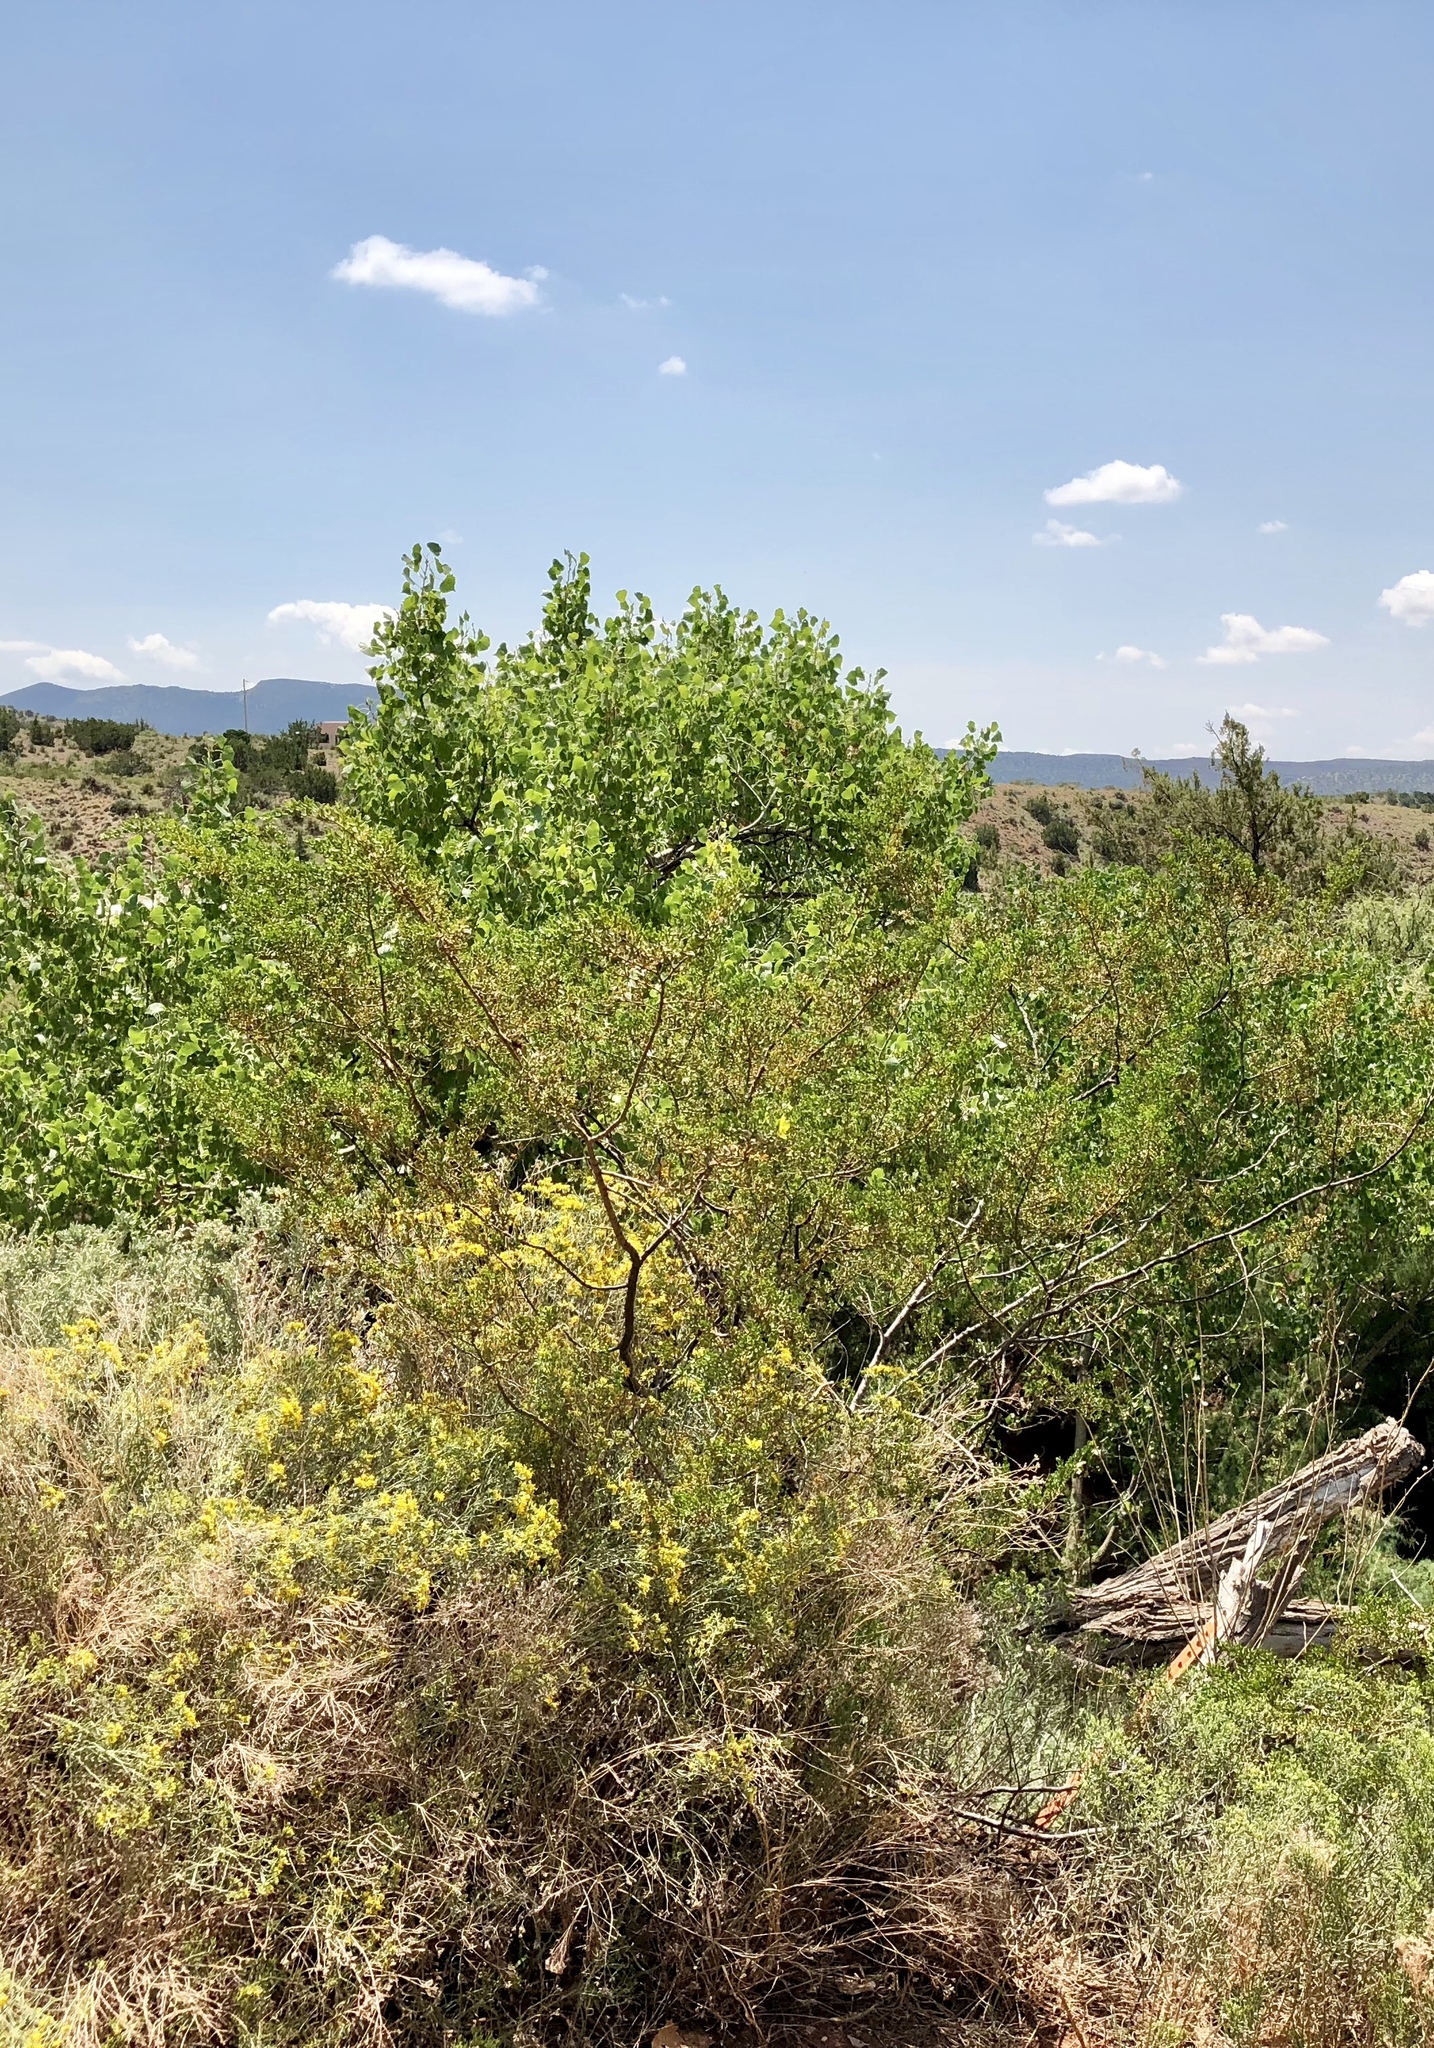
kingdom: Plantae
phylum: Tracheophyta
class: Magnoliopsida
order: Zygophyllales
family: Zygophyllaceae
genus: Larrea
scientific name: Larrea tridentata
